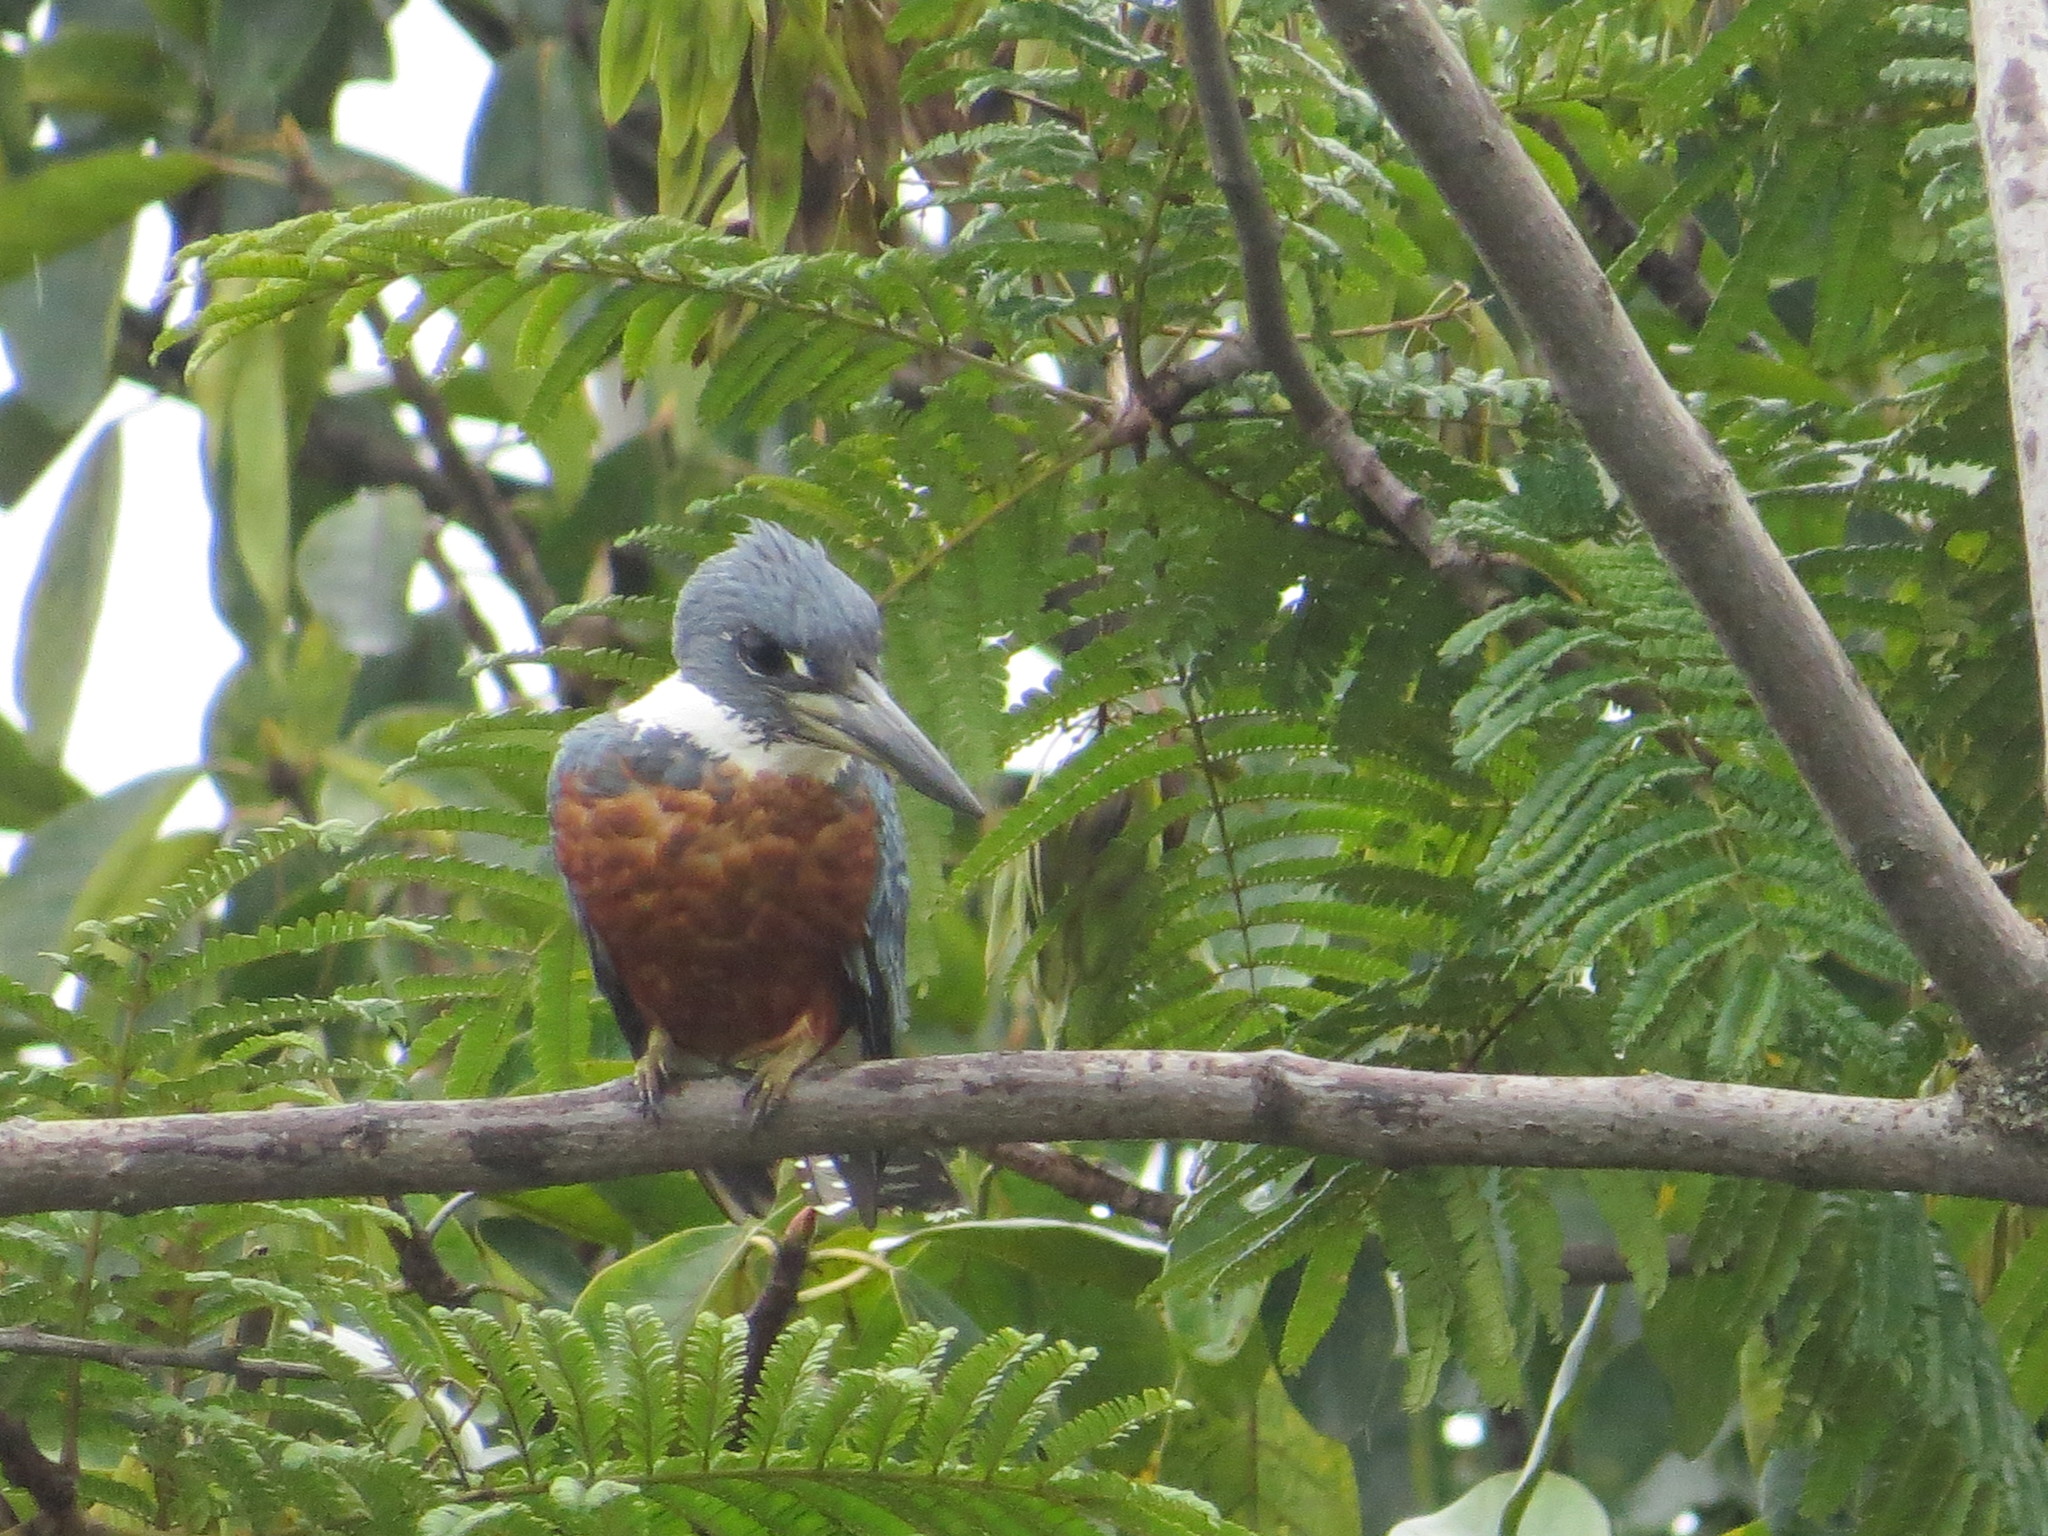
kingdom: Animalia
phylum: Chordata
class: Aves
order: Coraciiformes
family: Alcedinidae
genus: Megaceryle
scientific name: Megaceryle torquata
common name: Ringed kingfisher
